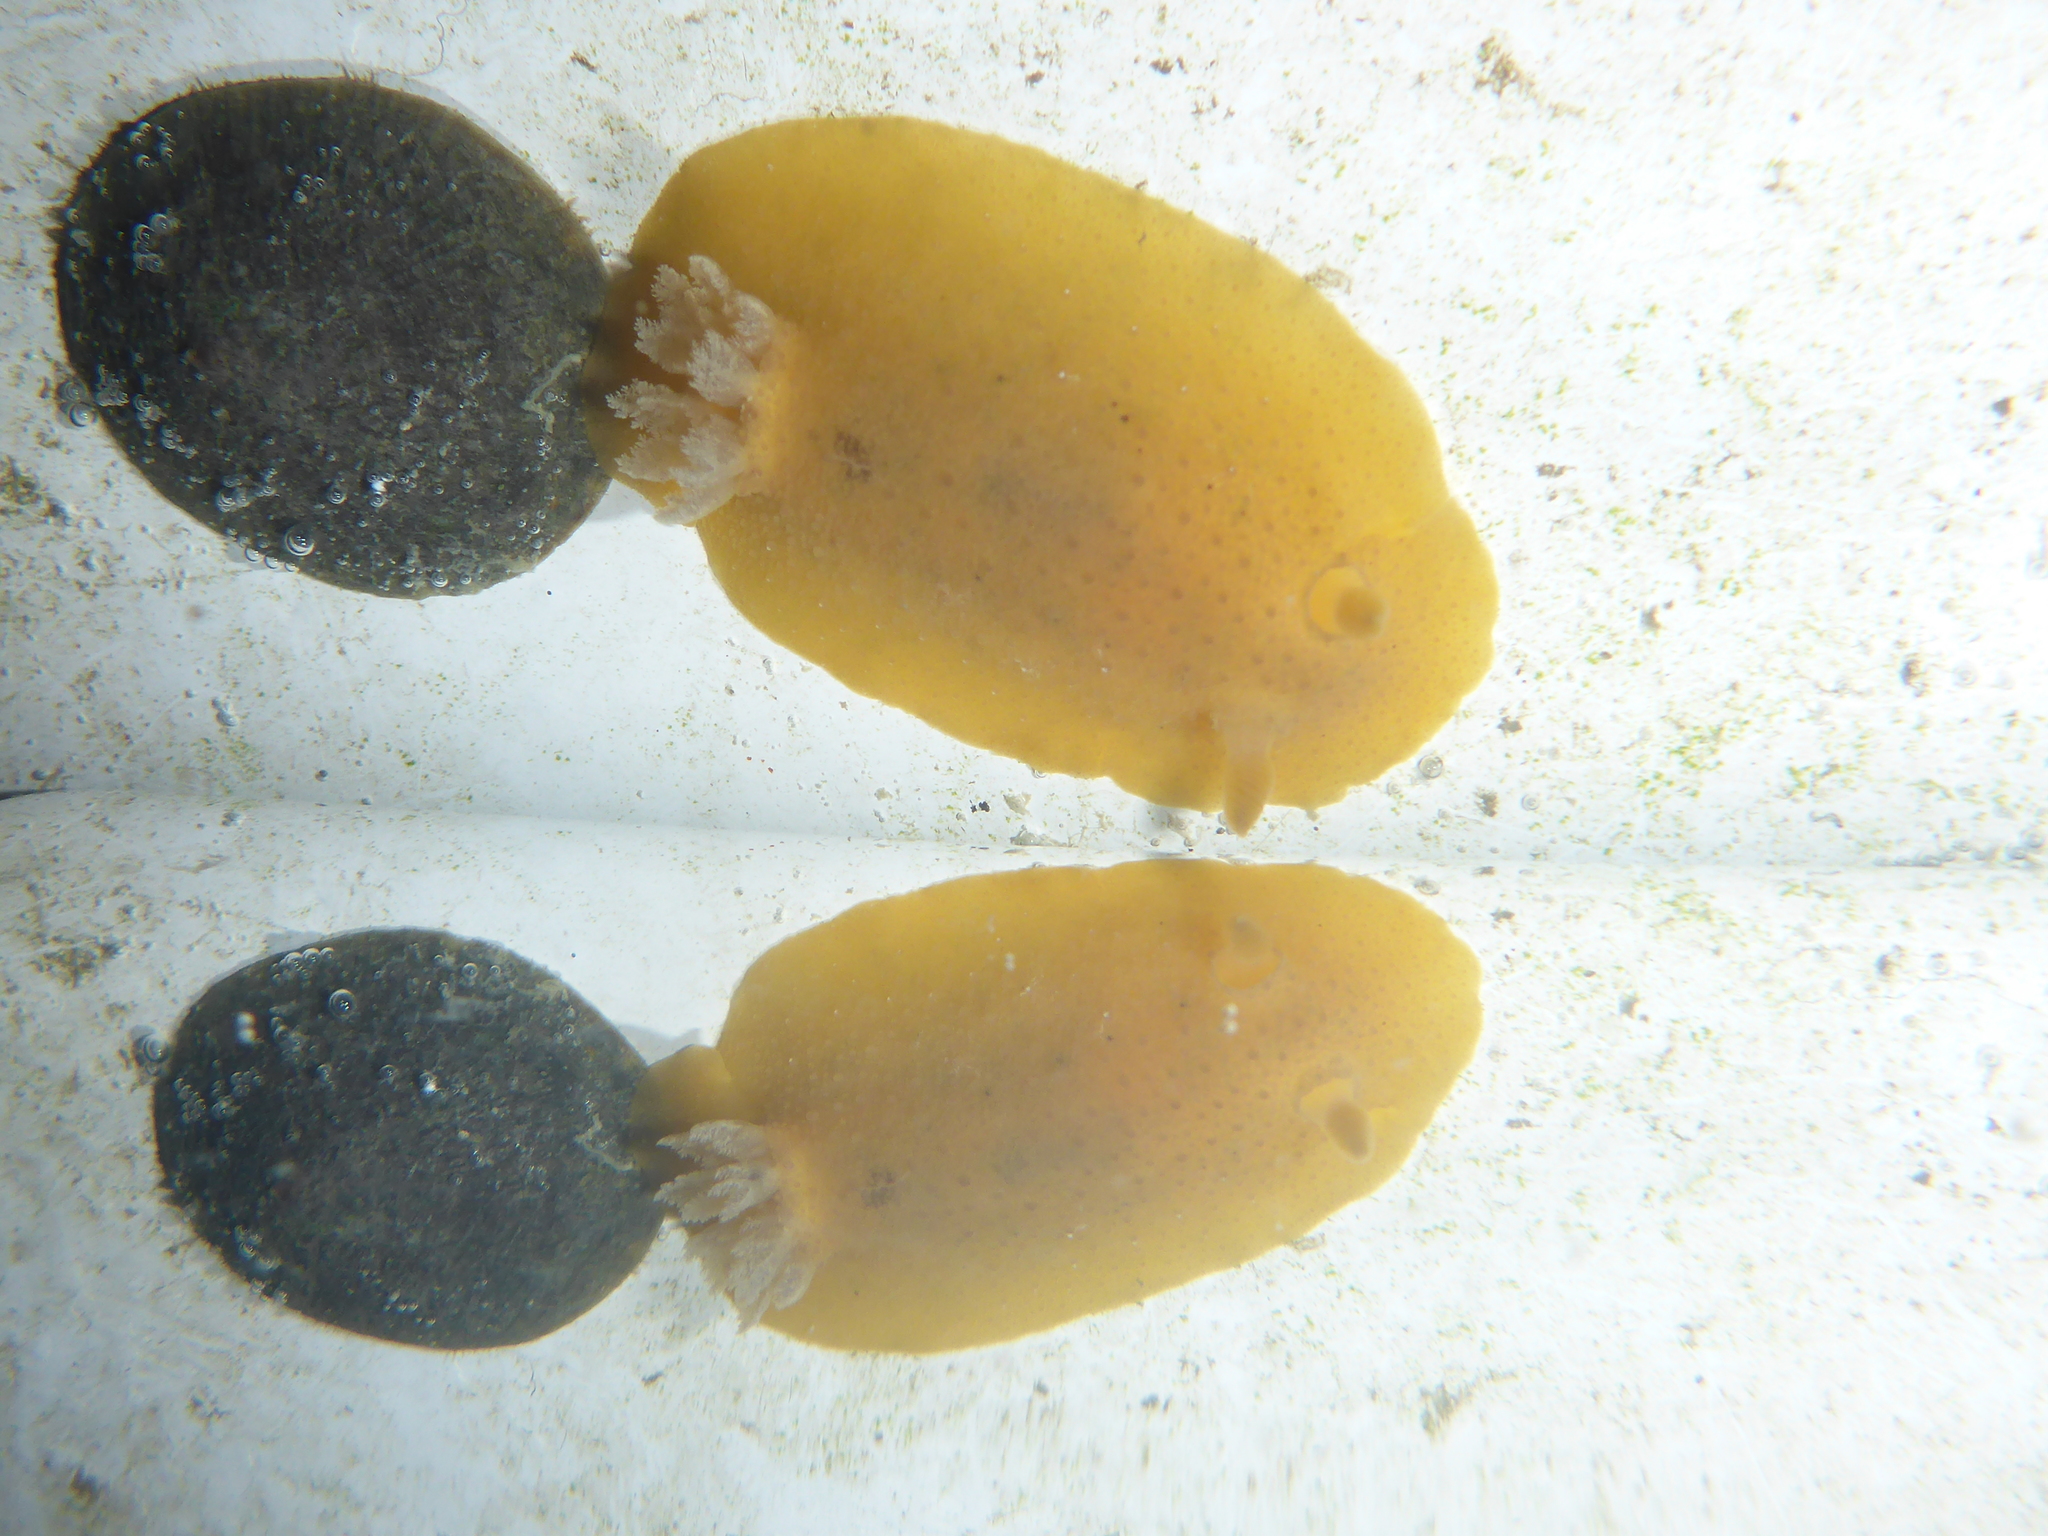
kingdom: Animalia
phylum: Mollusca
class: Gastropoda
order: Nudibranchia
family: Discodorididae
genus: Geitodoris
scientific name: Geitodoris heathi
